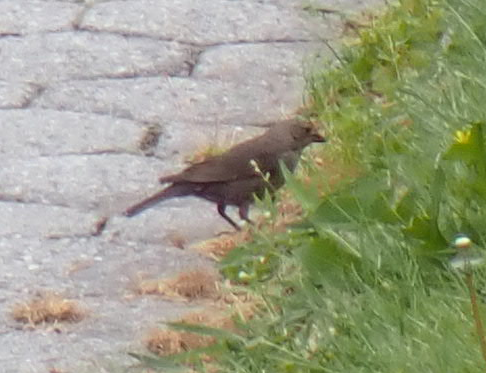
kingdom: Animalia
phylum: Chordata
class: Aves
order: Passeriformes
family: Icteridae
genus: Molothrus
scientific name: Molothrus ater
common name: Brown-headed cowbird
